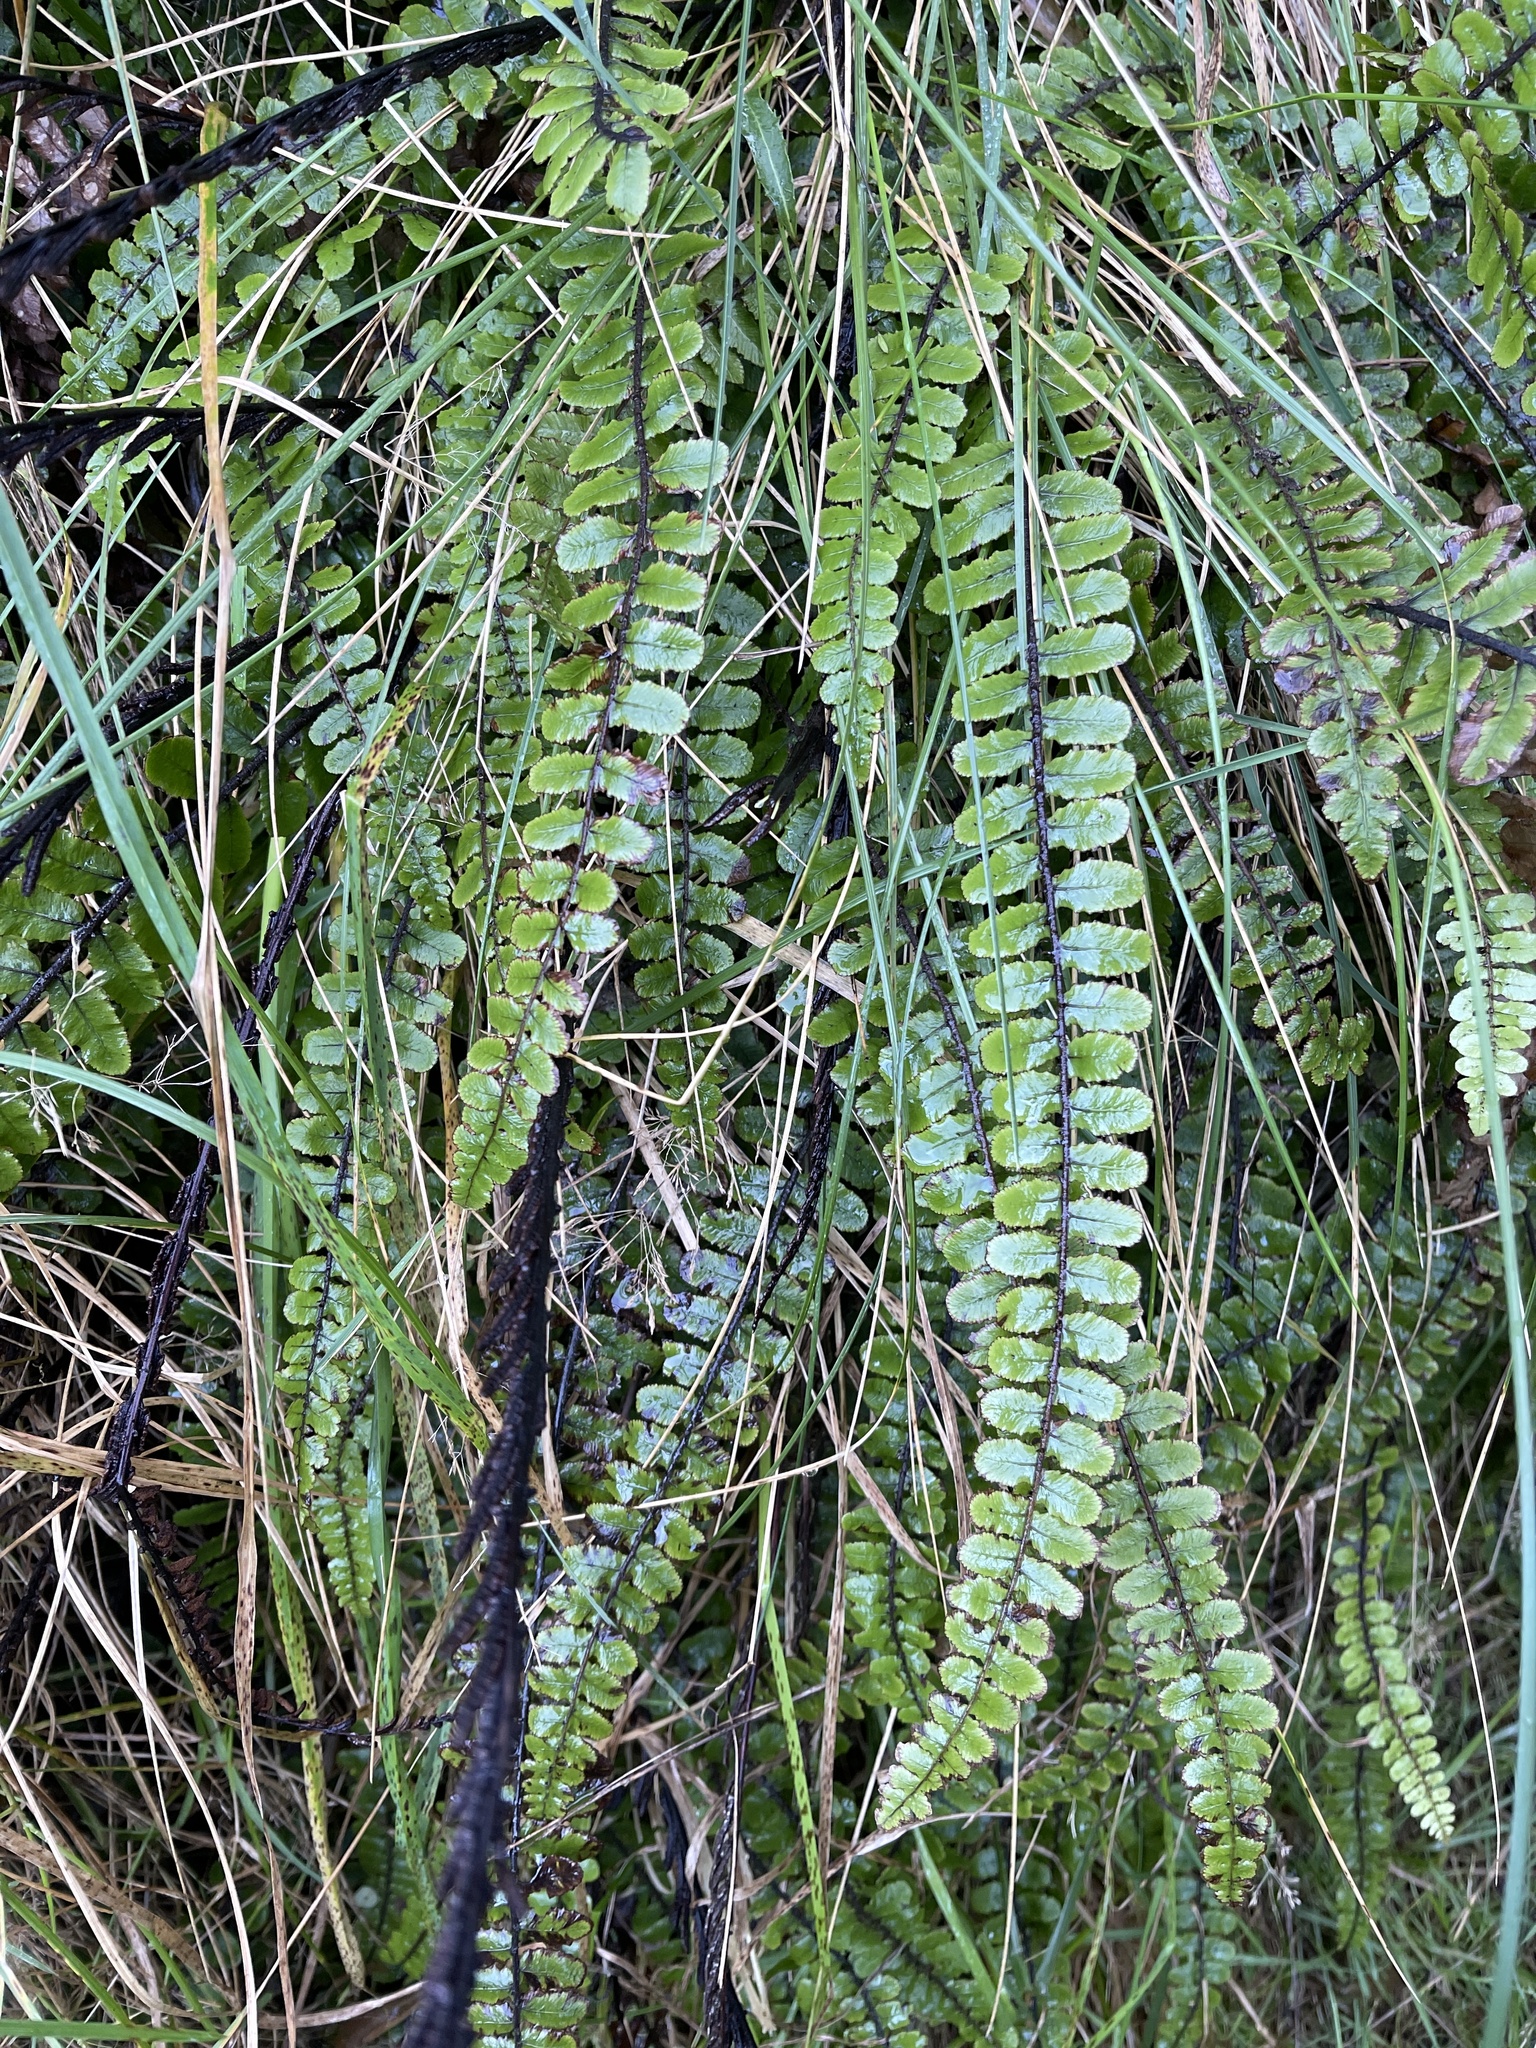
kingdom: Plantae
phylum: Tracheophyta
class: Polypodiopsida
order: Polypodiales
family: Blechnaceae
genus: Cranfillia
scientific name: Cranfillia fluviatilis
